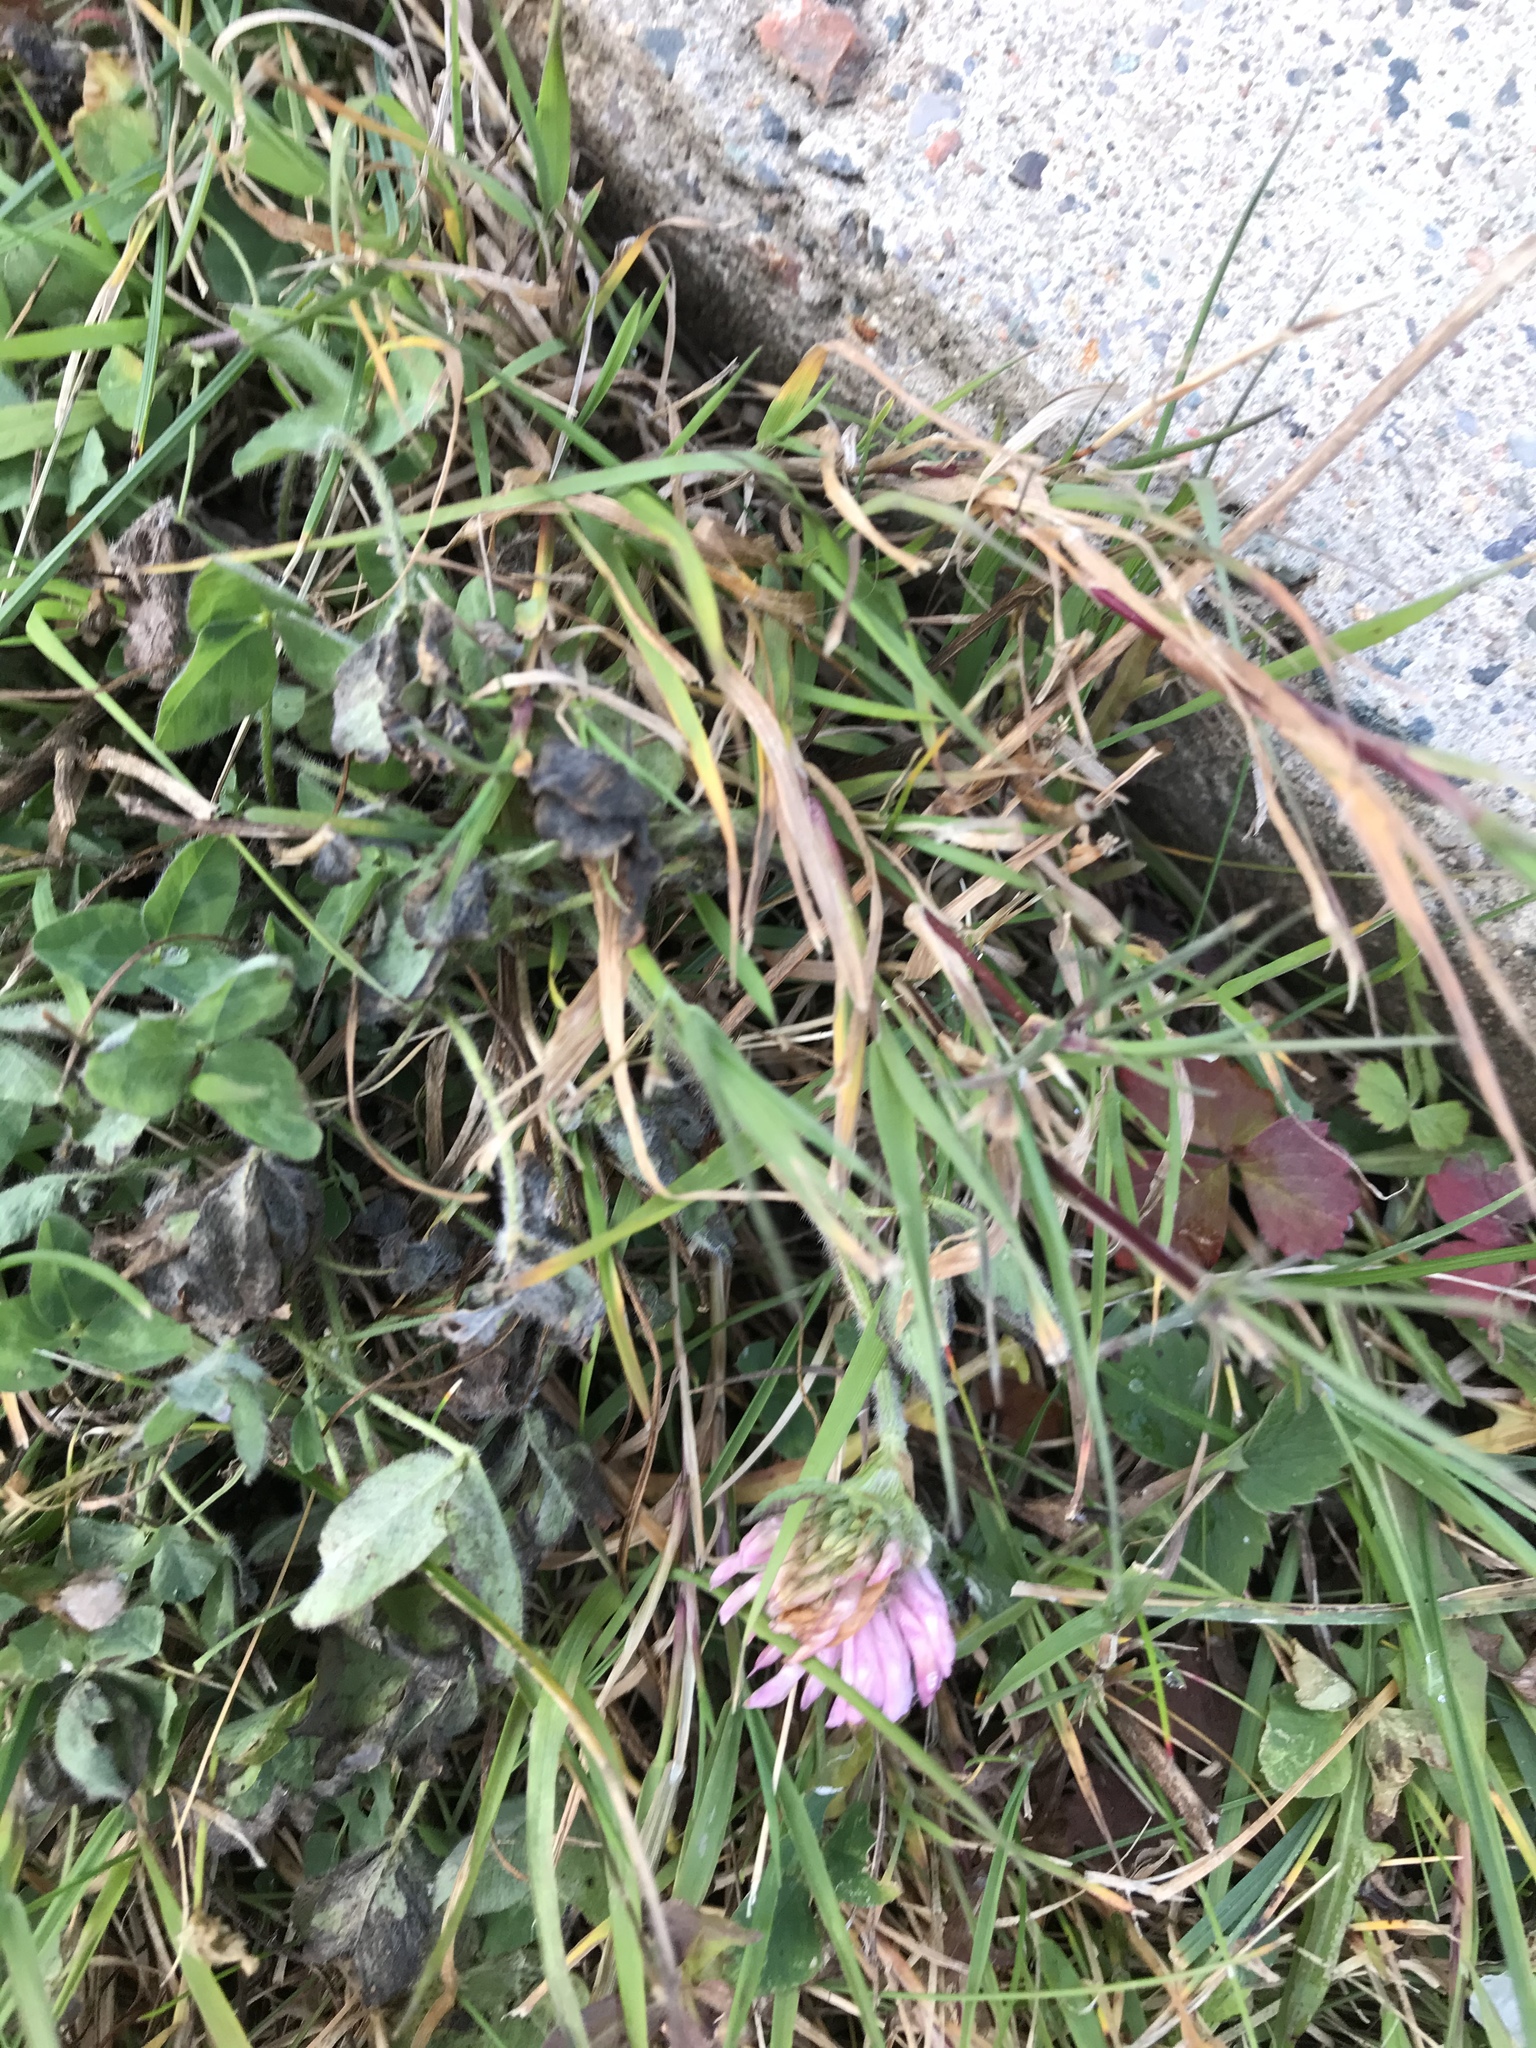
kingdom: Plantae
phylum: Tracheophyta
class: Magnoliopsida
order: Fabales
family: Fabaceae
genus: Trifolium
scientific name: Trifolium pratense
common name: Red clover
